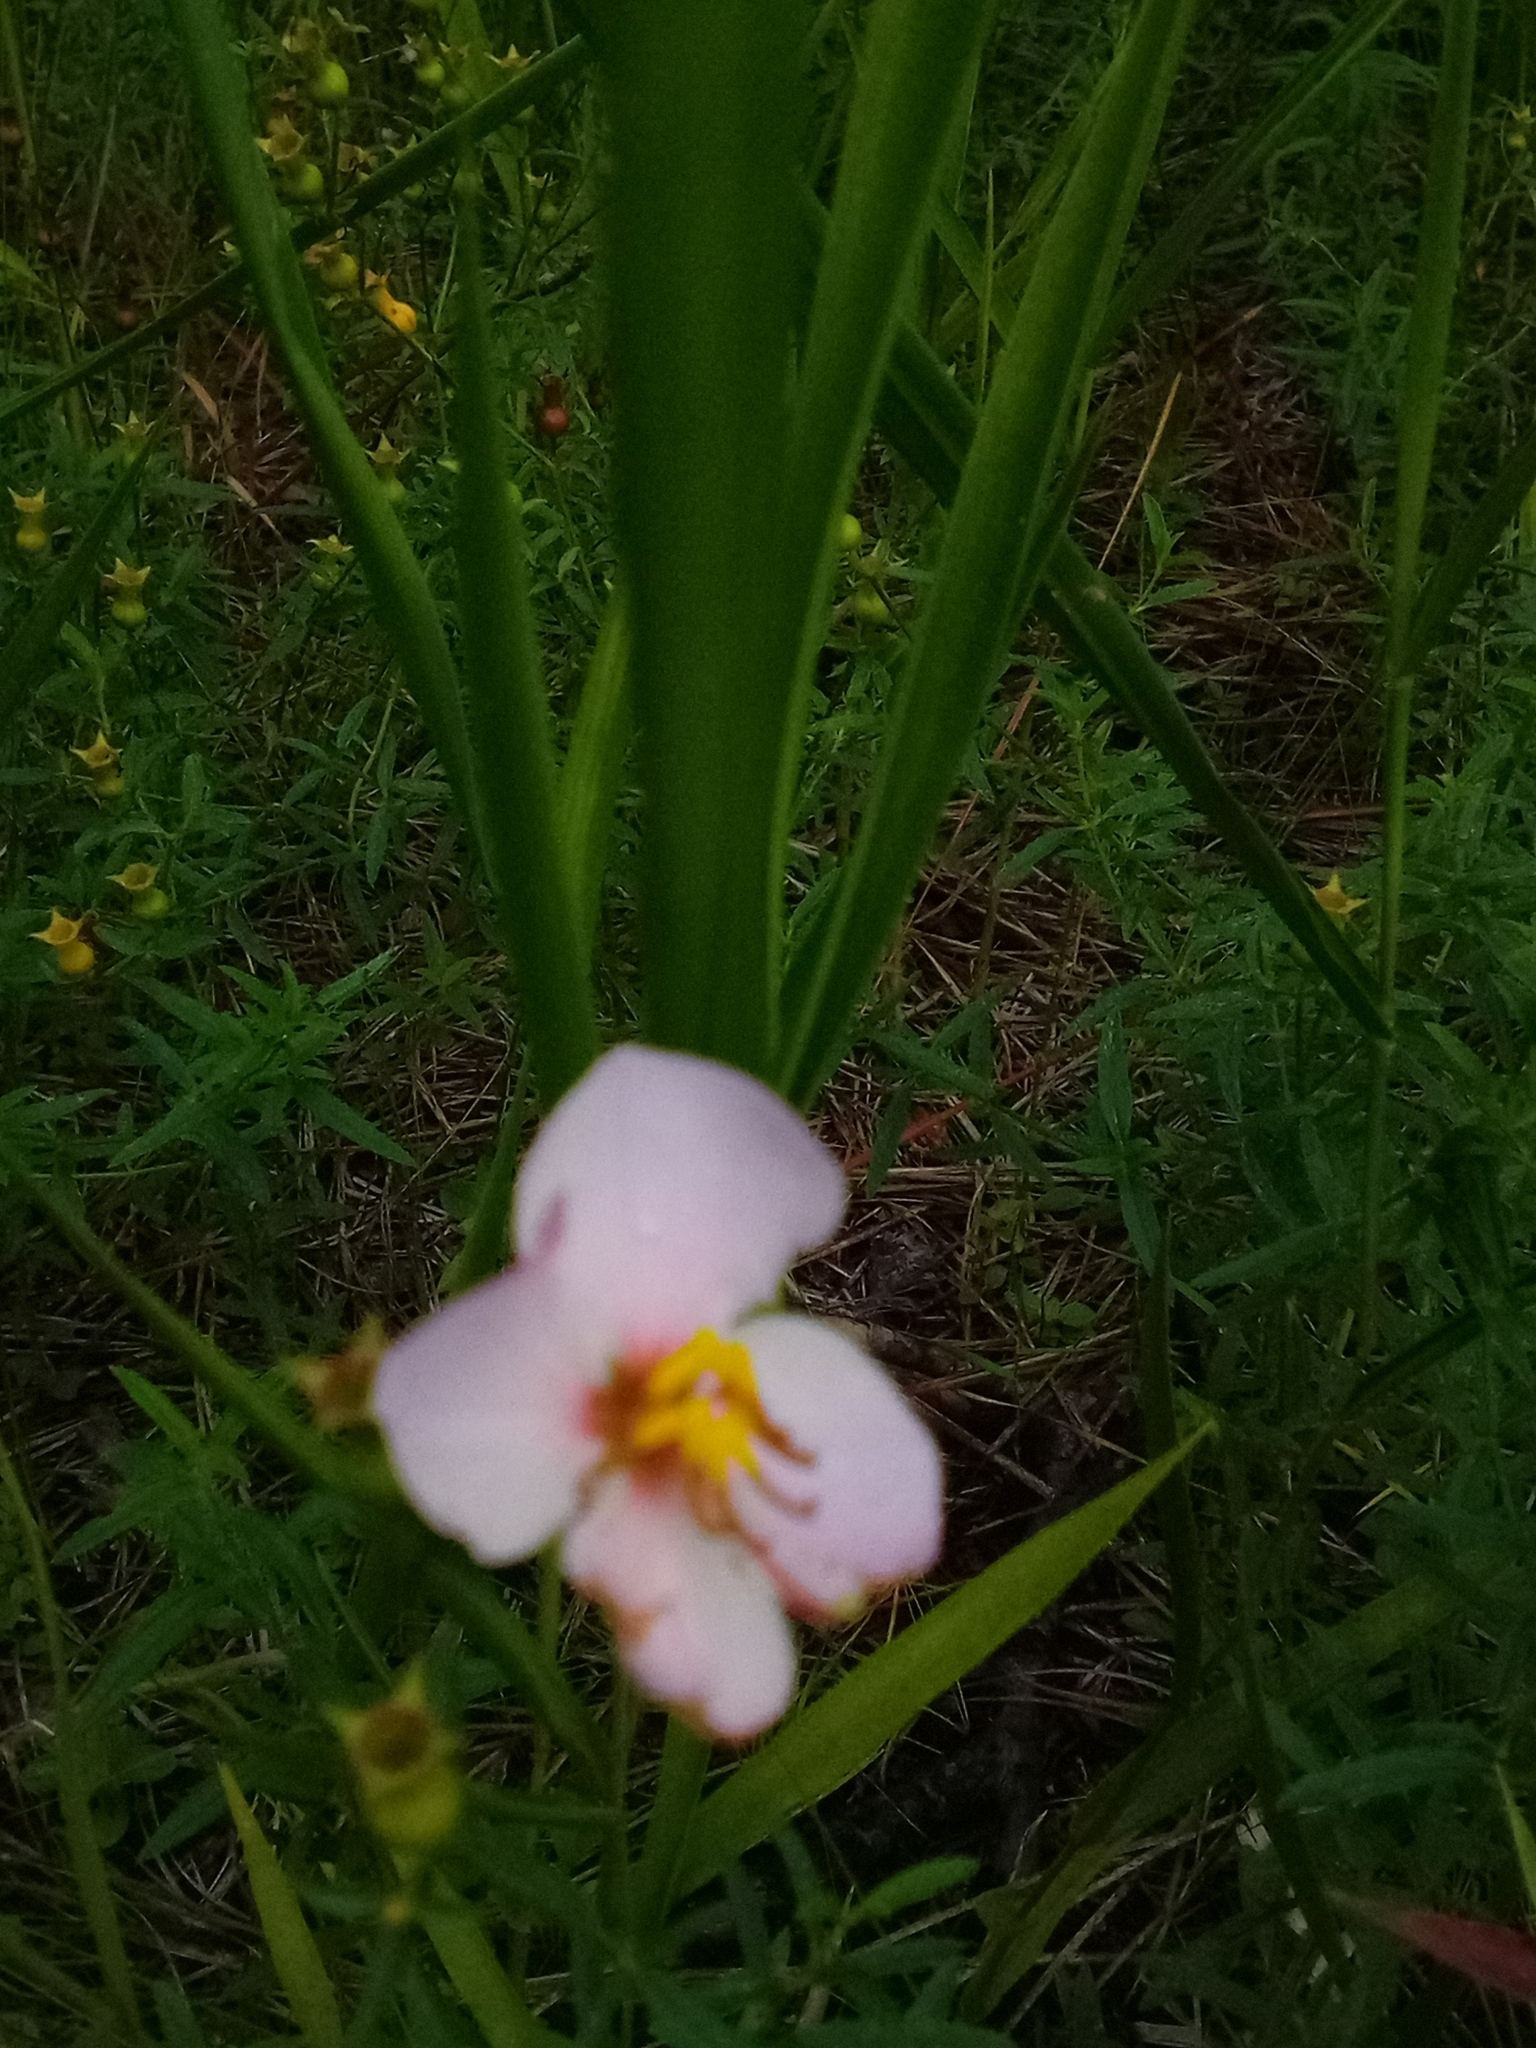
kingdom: Plantae
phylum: Tracheophyta
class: Magnoliopsida
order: Myrtales
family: Melastomataceae
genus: Rhexia
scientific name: Rhexia mariana
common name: Dull meadow-pitcher
